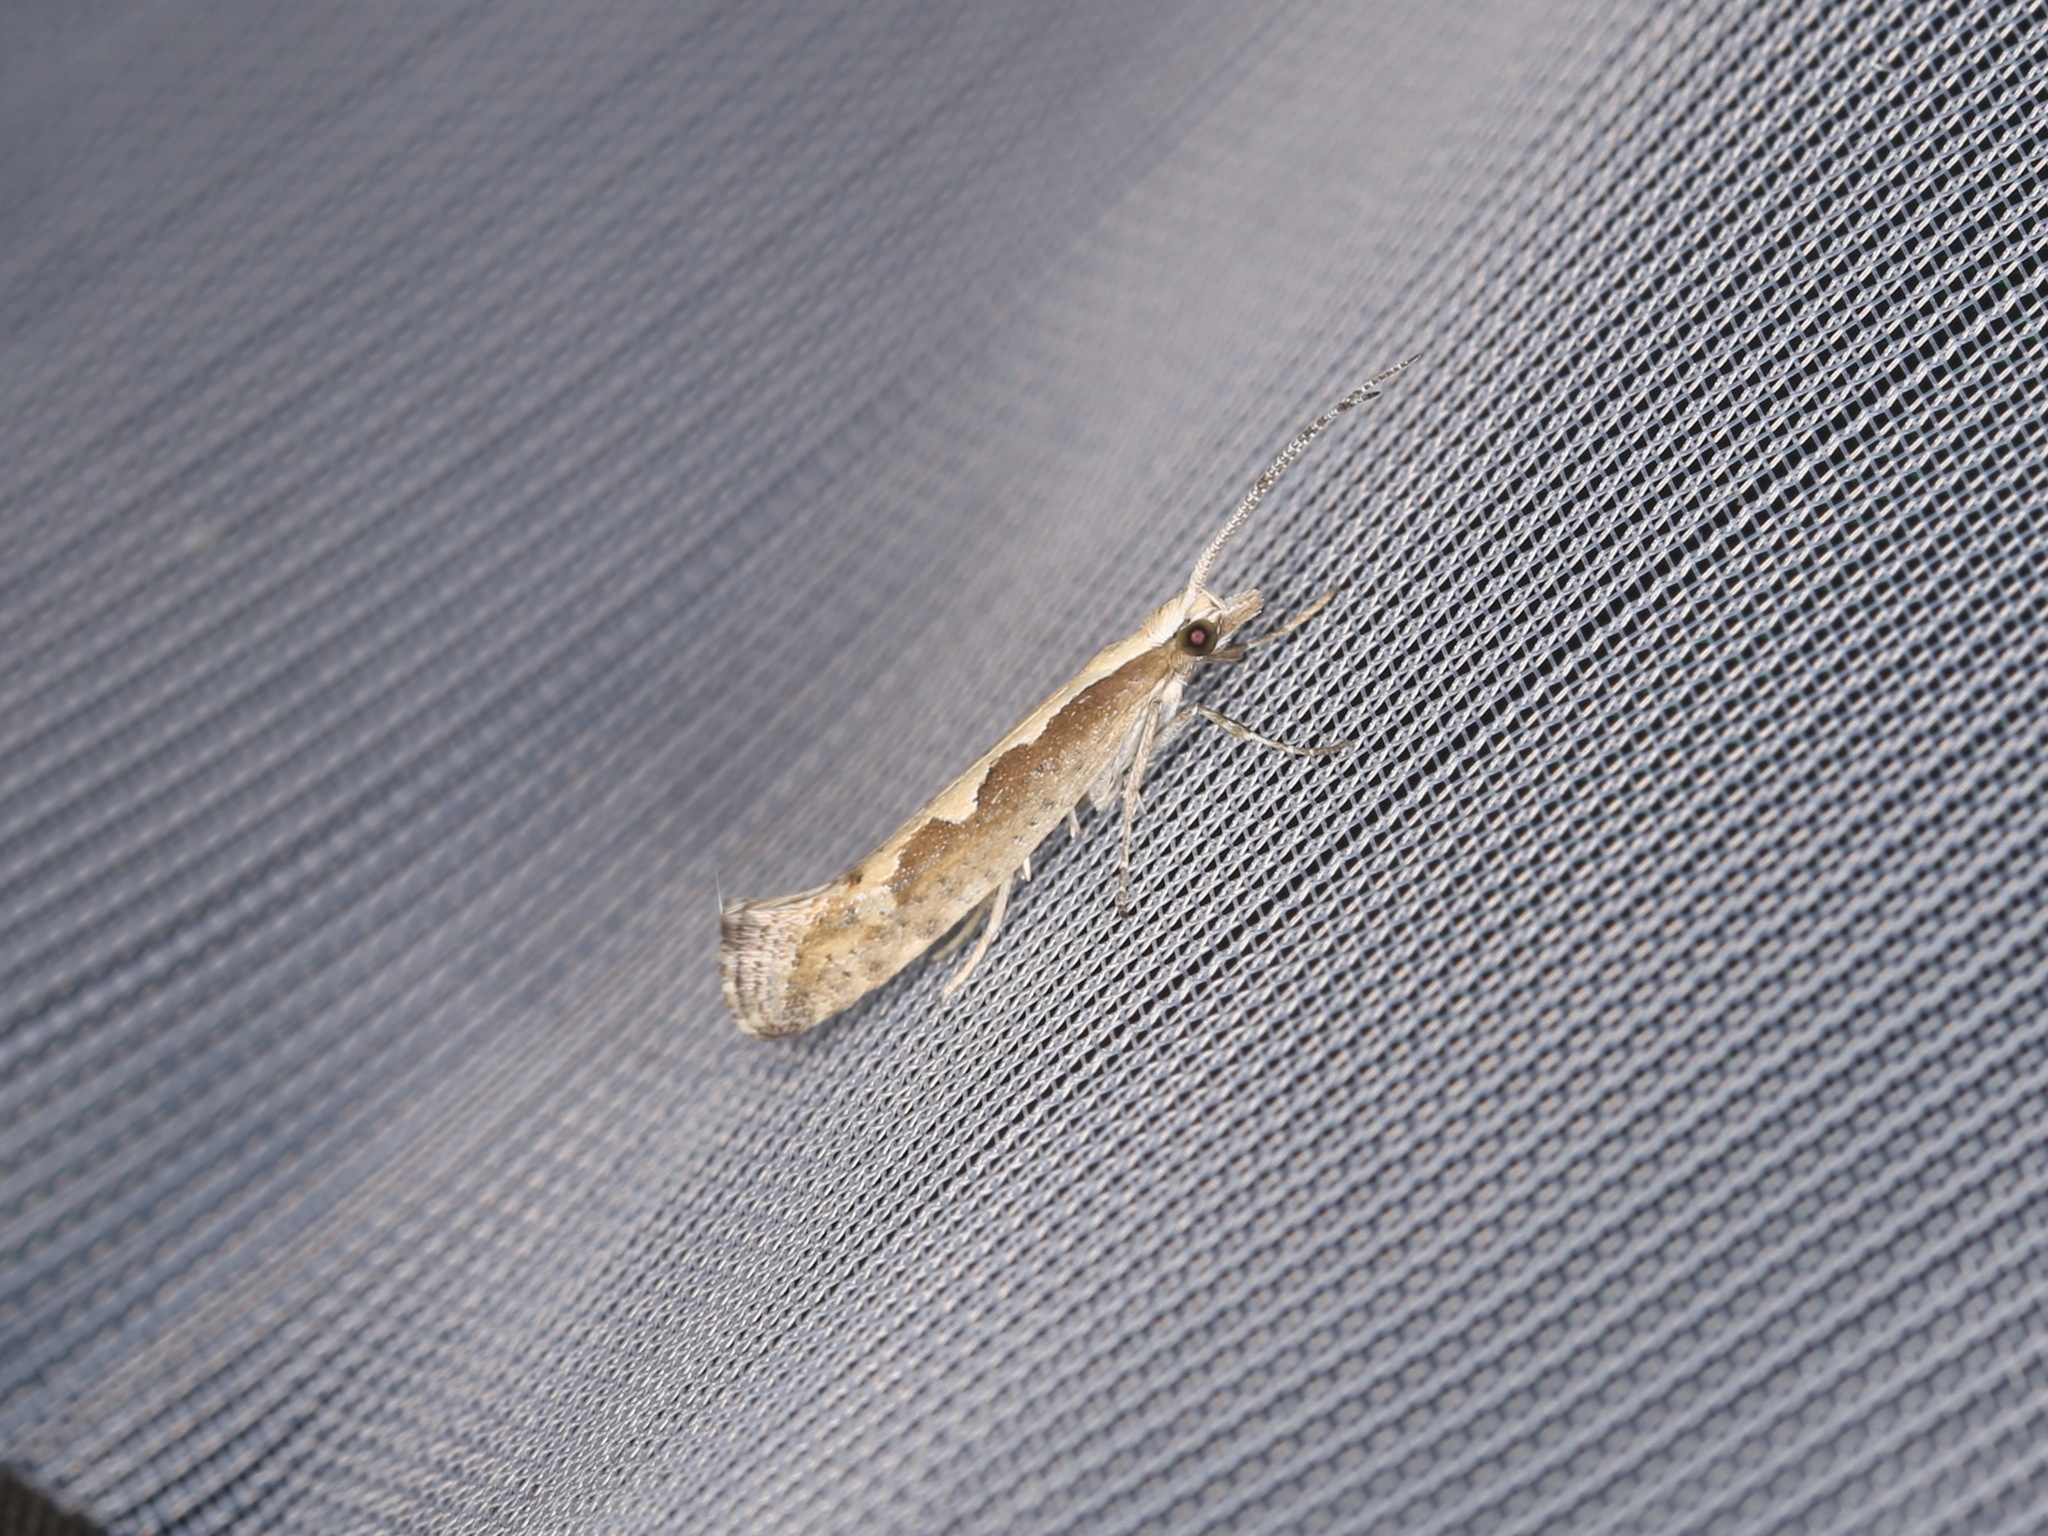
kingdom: Animalia
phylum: Arthropoda
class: Insecta
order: Lepidoptera
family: Plutellidae
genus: Plutella
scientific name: Plutella xylostella
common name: Diamond-back moth
